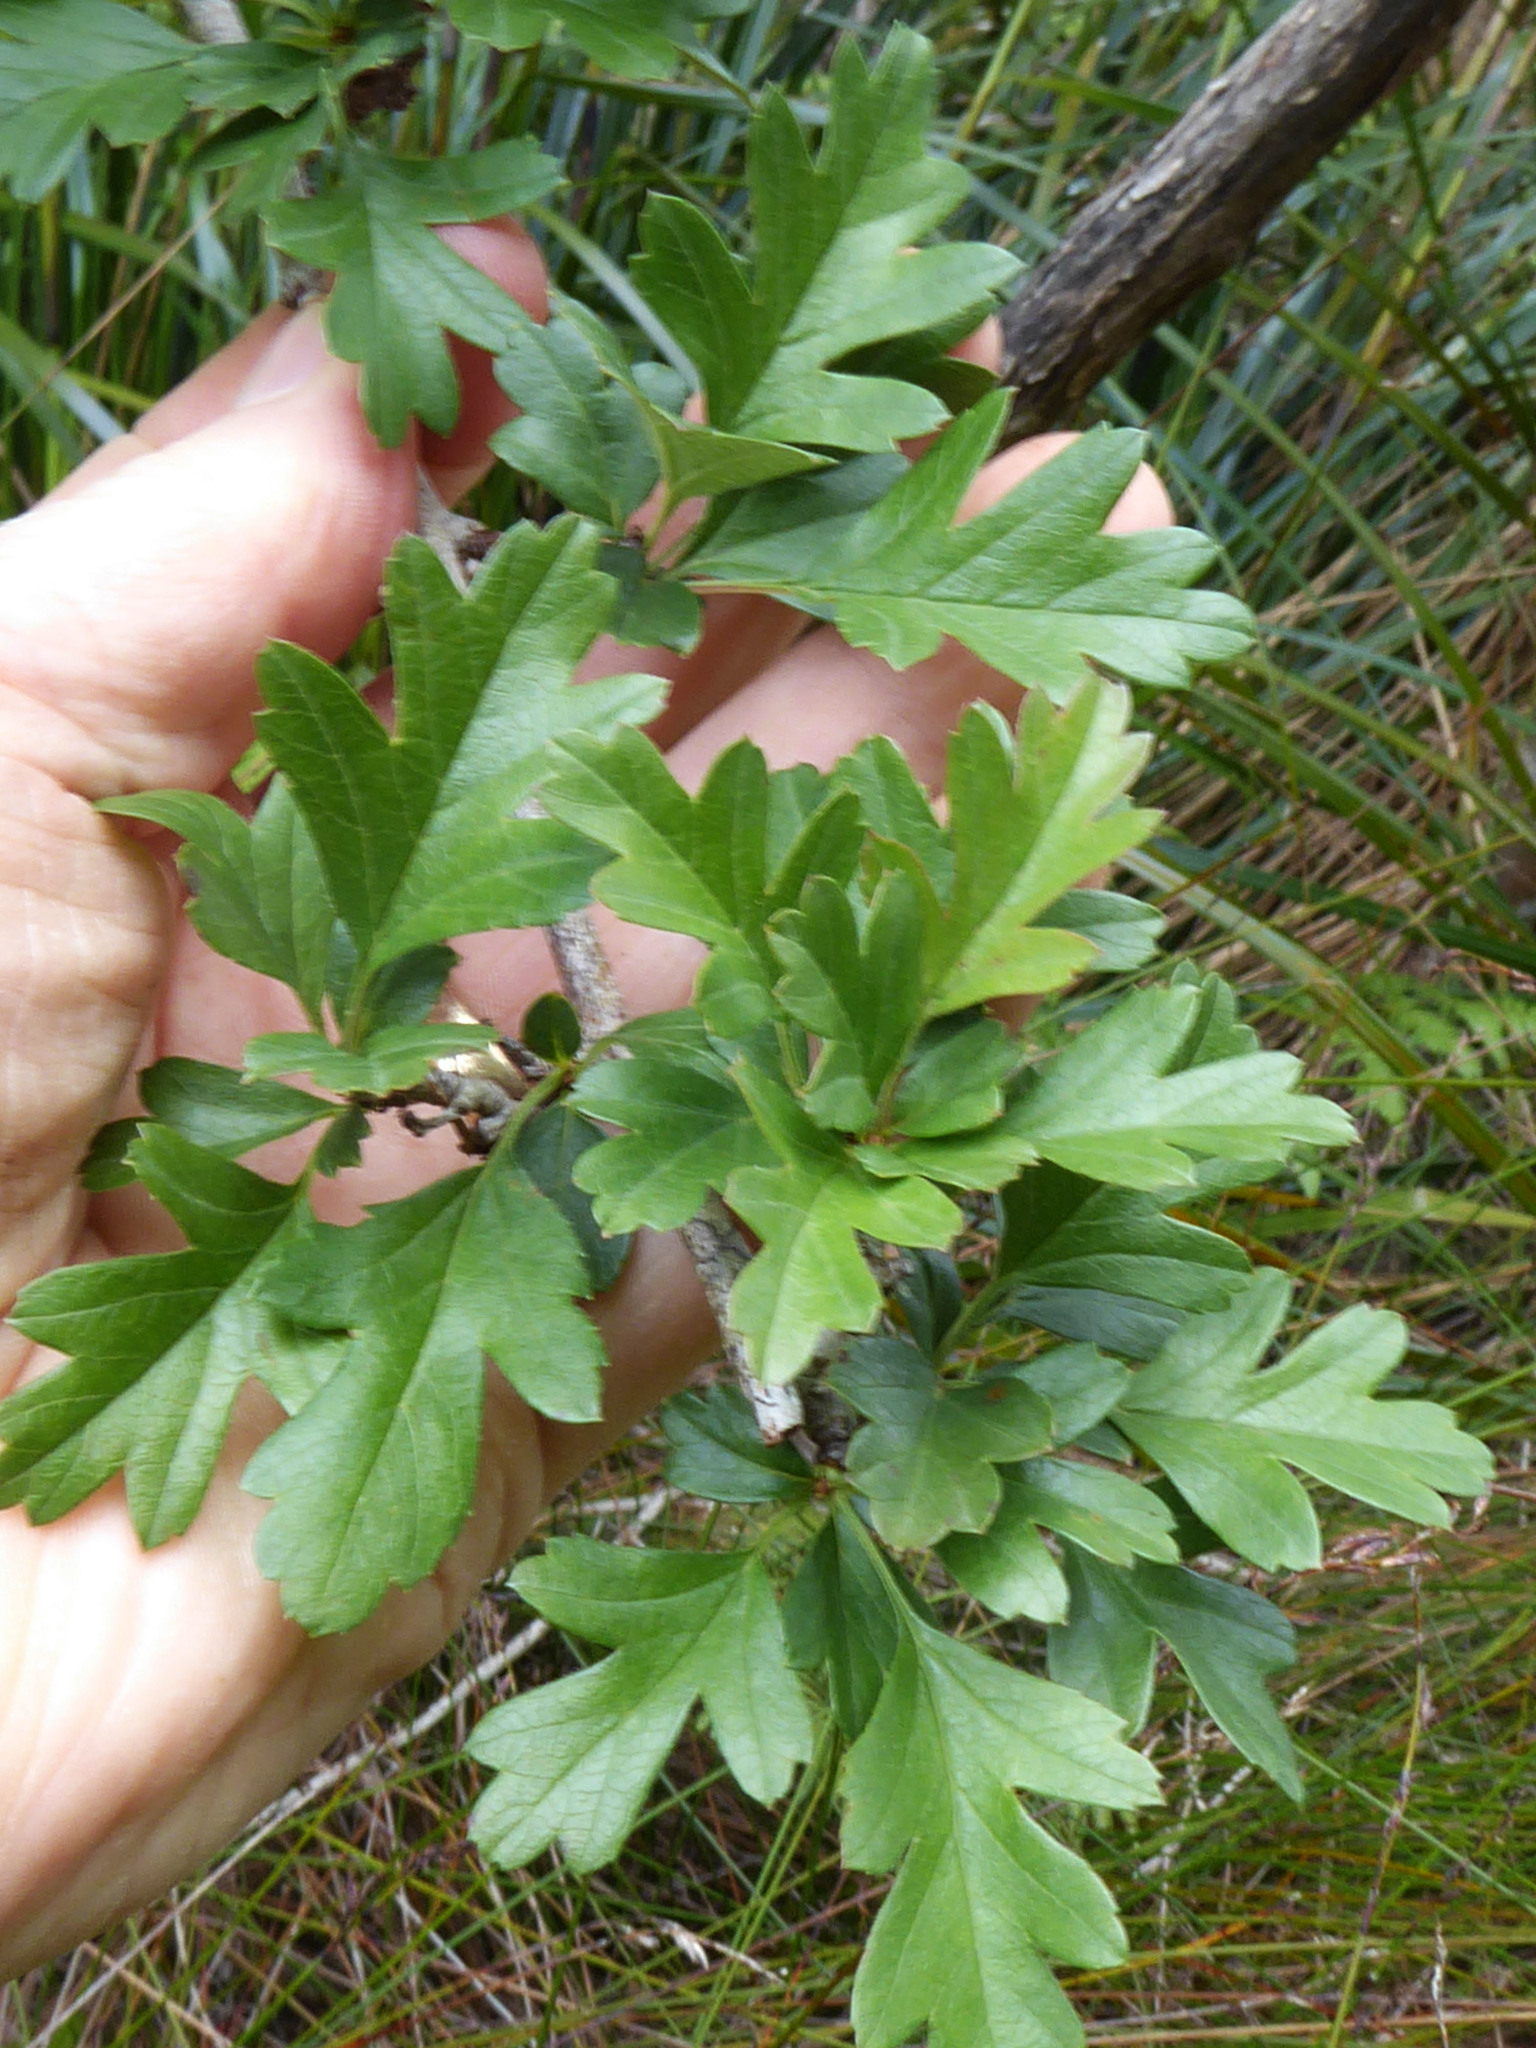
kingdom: Plantae
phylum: Tracheophyta
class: Magnoliopsida
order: Rosales
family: Rosaceae
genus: Crataegus
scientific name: Crataegus monogyna
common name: Hawthorn
